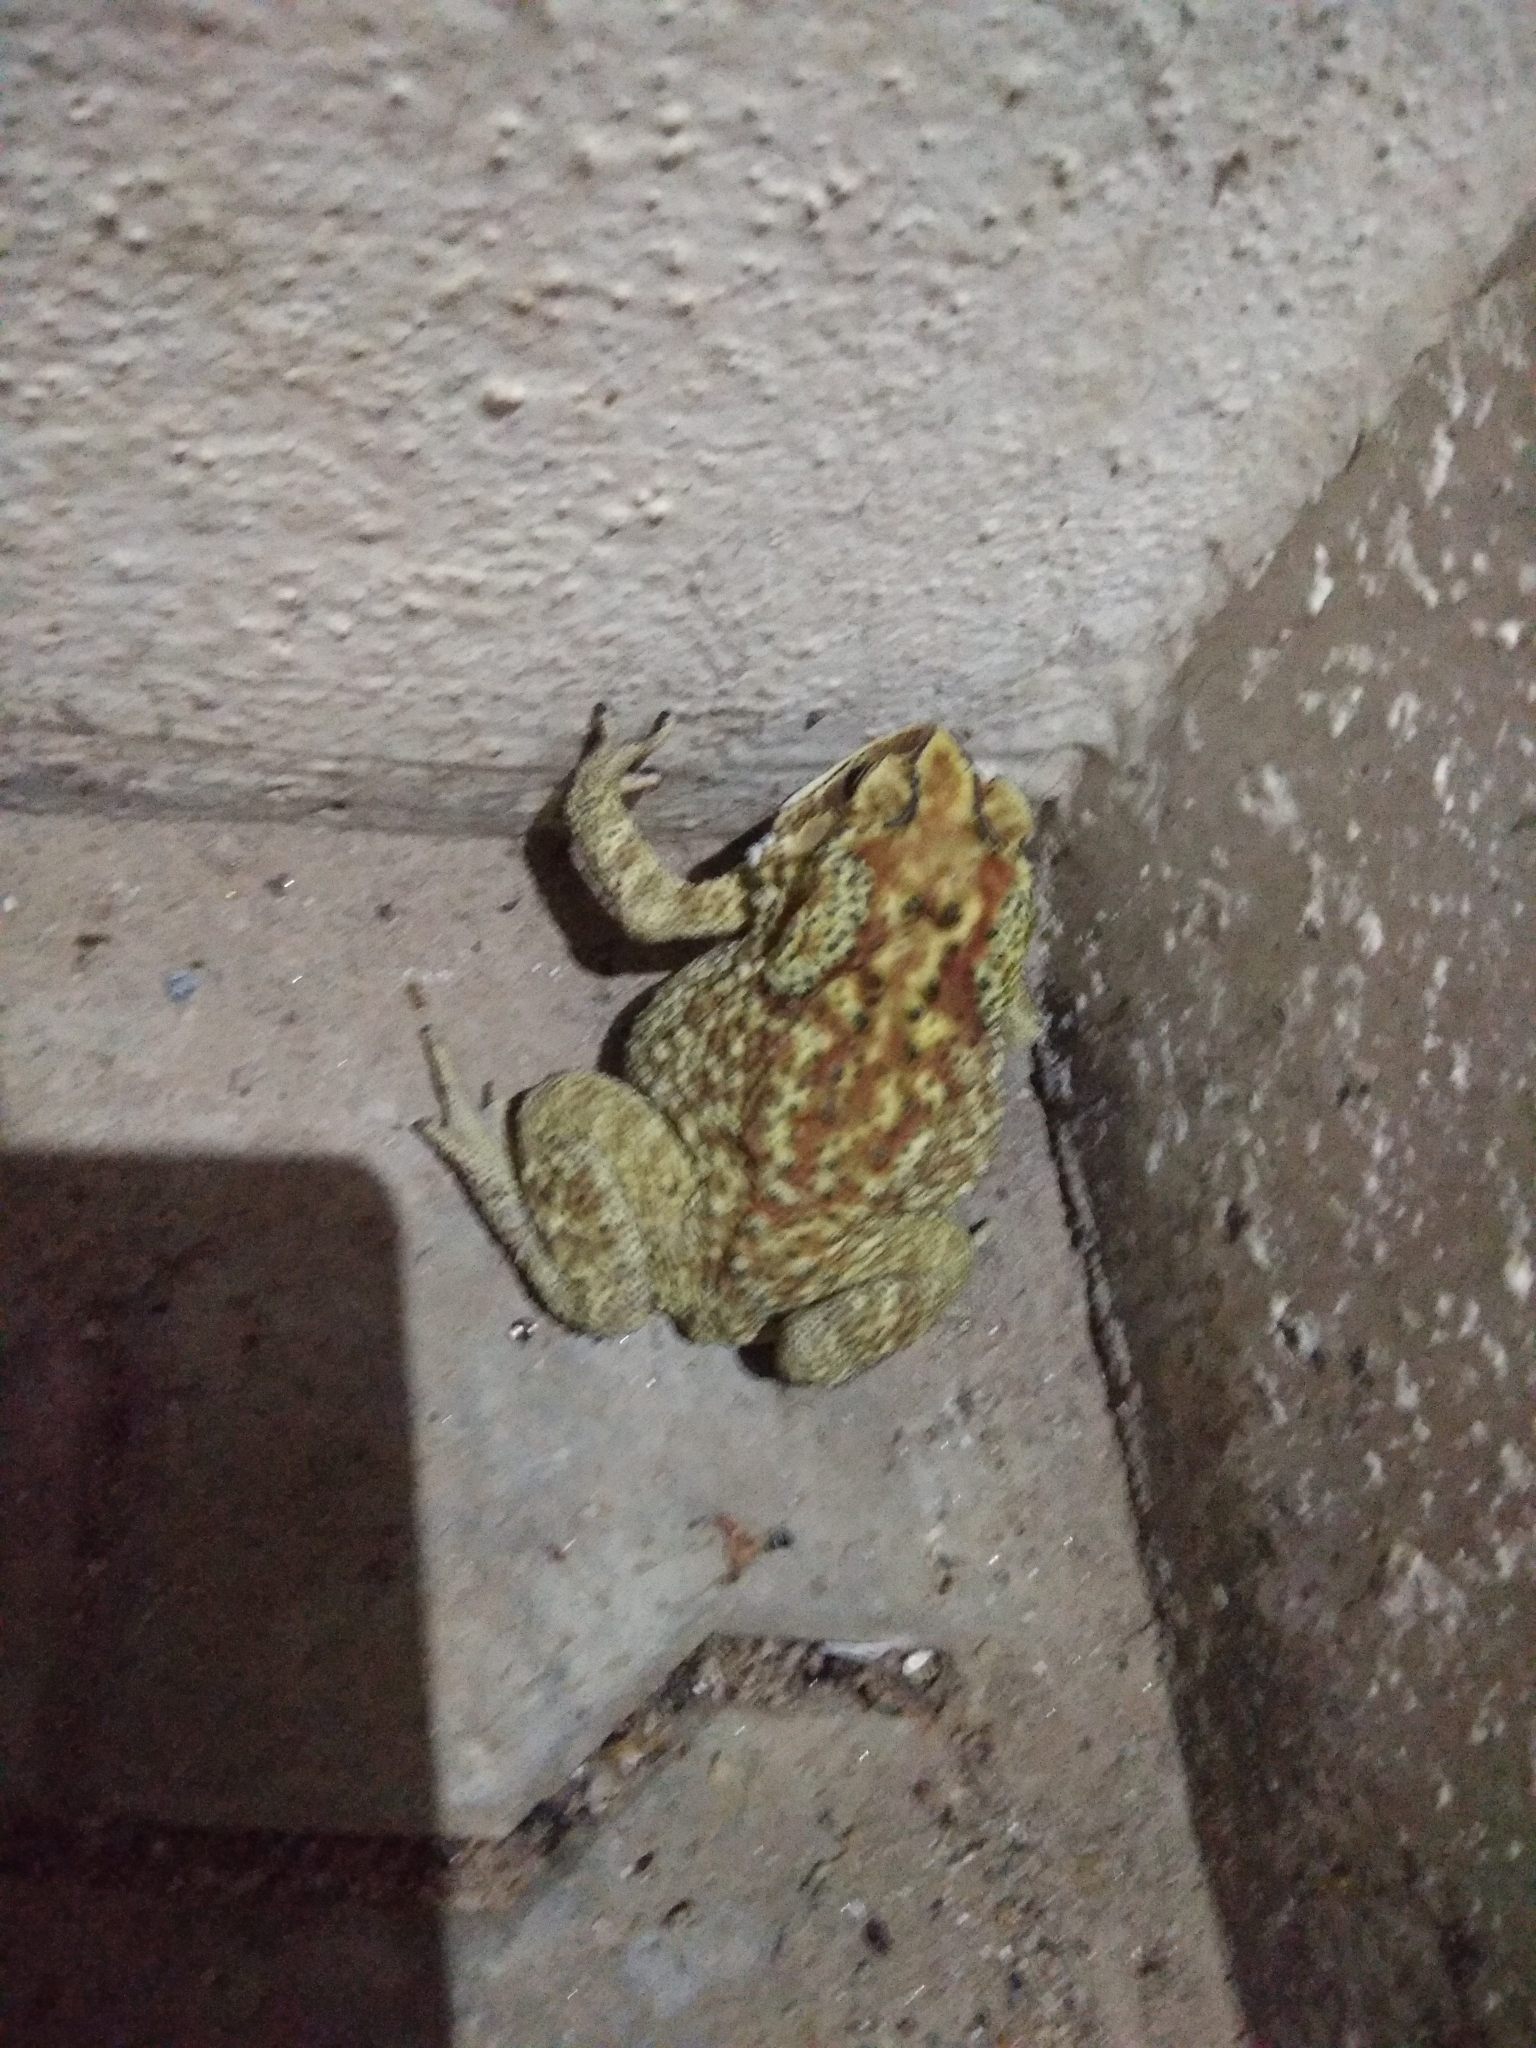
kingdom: Animalia
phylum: Chordata
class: Amphibia
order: Anura
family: Bufonidae
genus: Duttaphrynus
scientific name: Duttaphrynus melanostictus
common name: Common sunda toad
